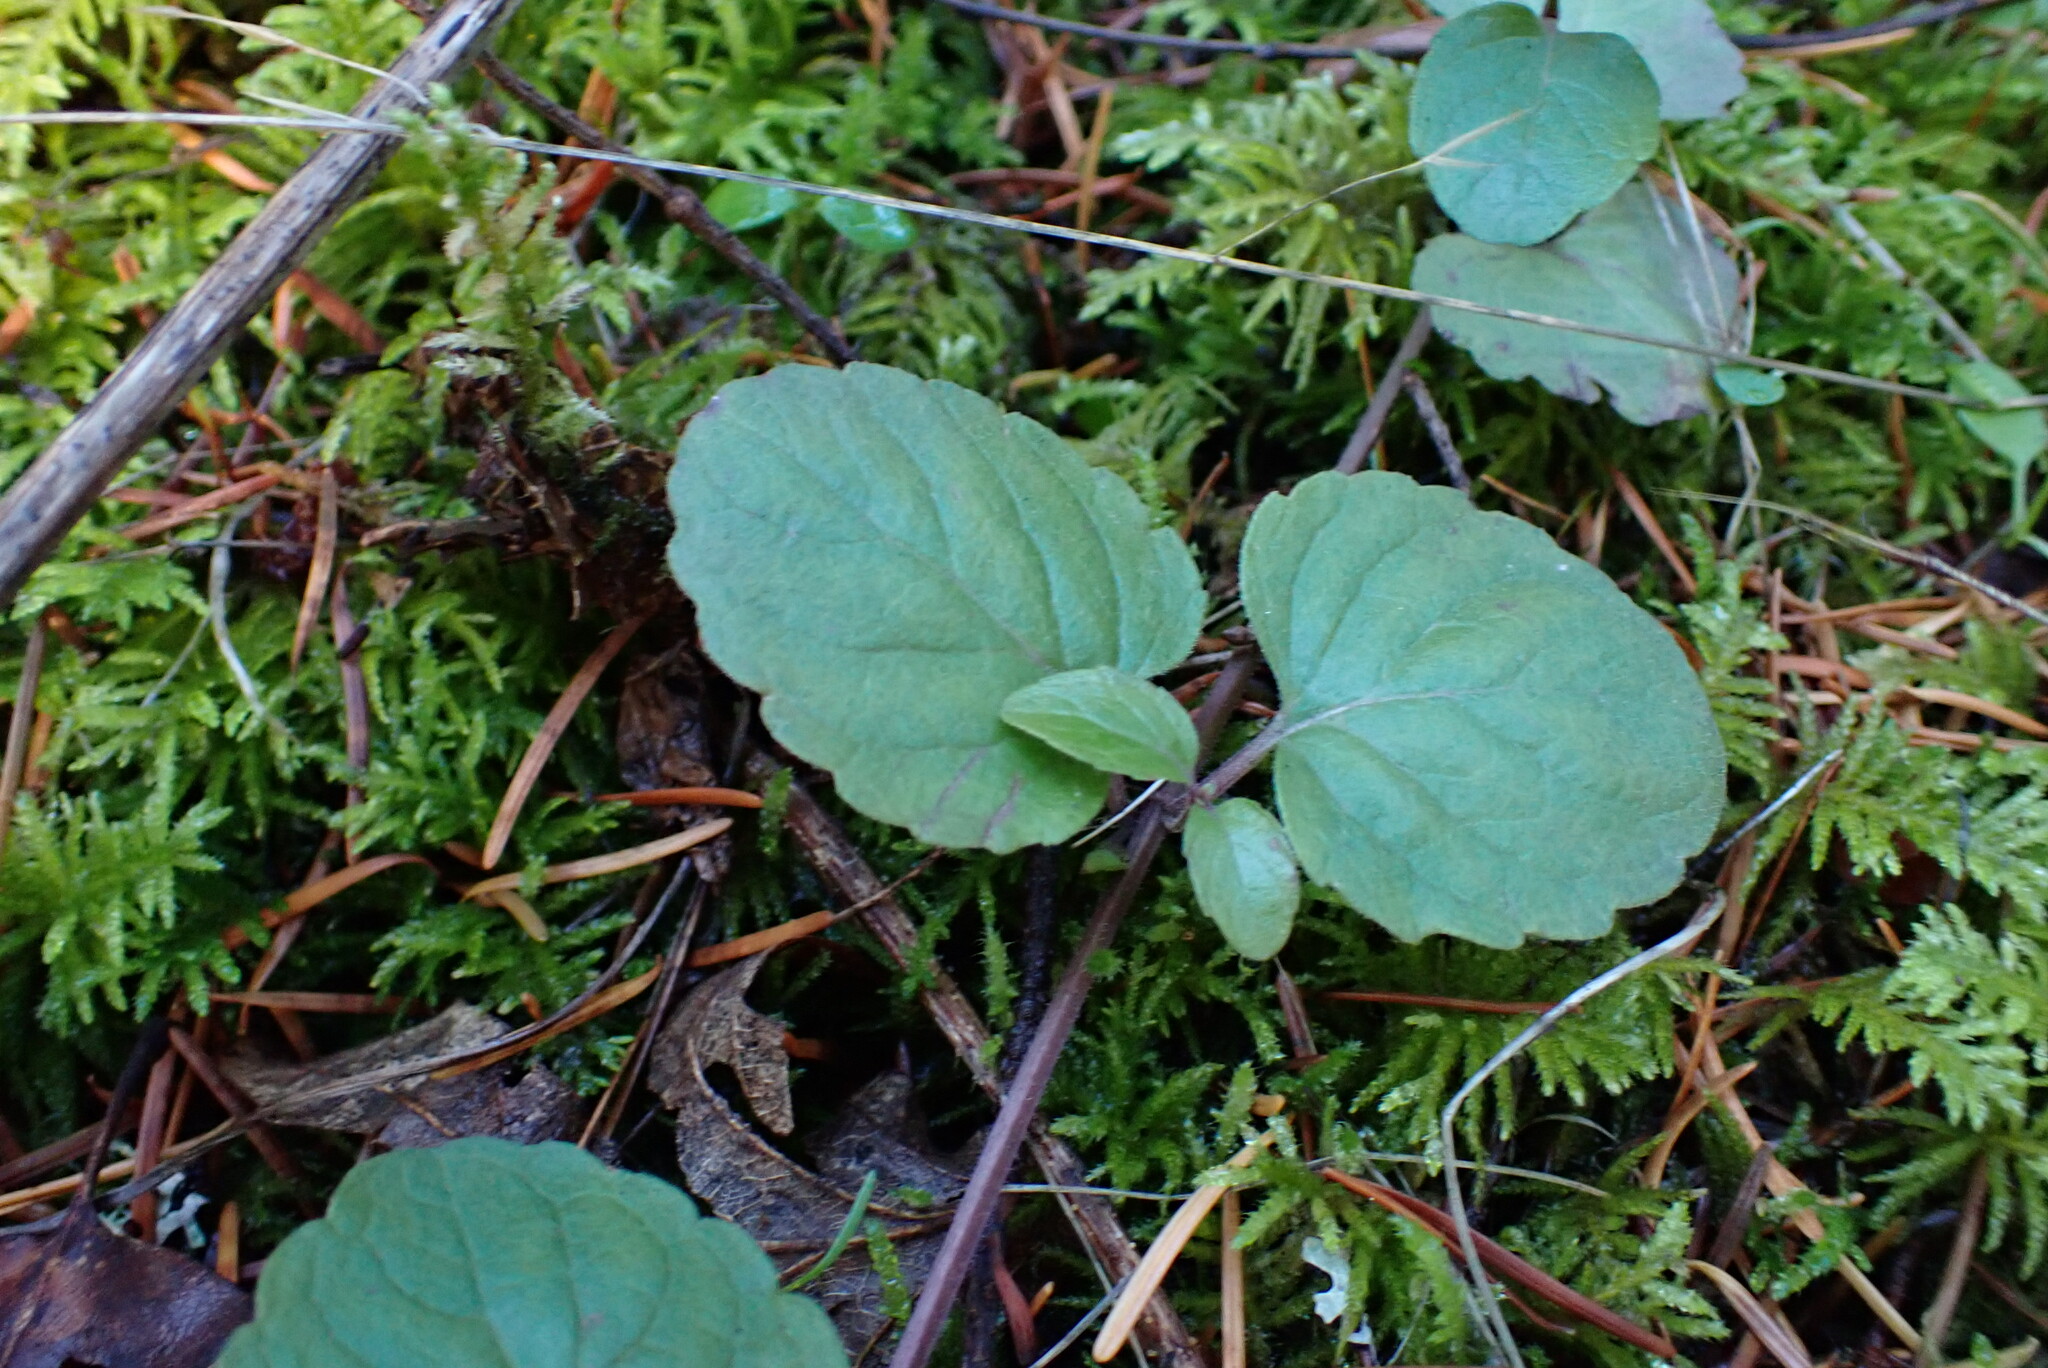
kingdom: Plantae
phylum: Tracheophyta
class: Magnoliopsida
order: Lamiales
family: Lamiaceae
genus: Micromeria
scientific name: Micromeria douglasii
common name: Yerba buena
